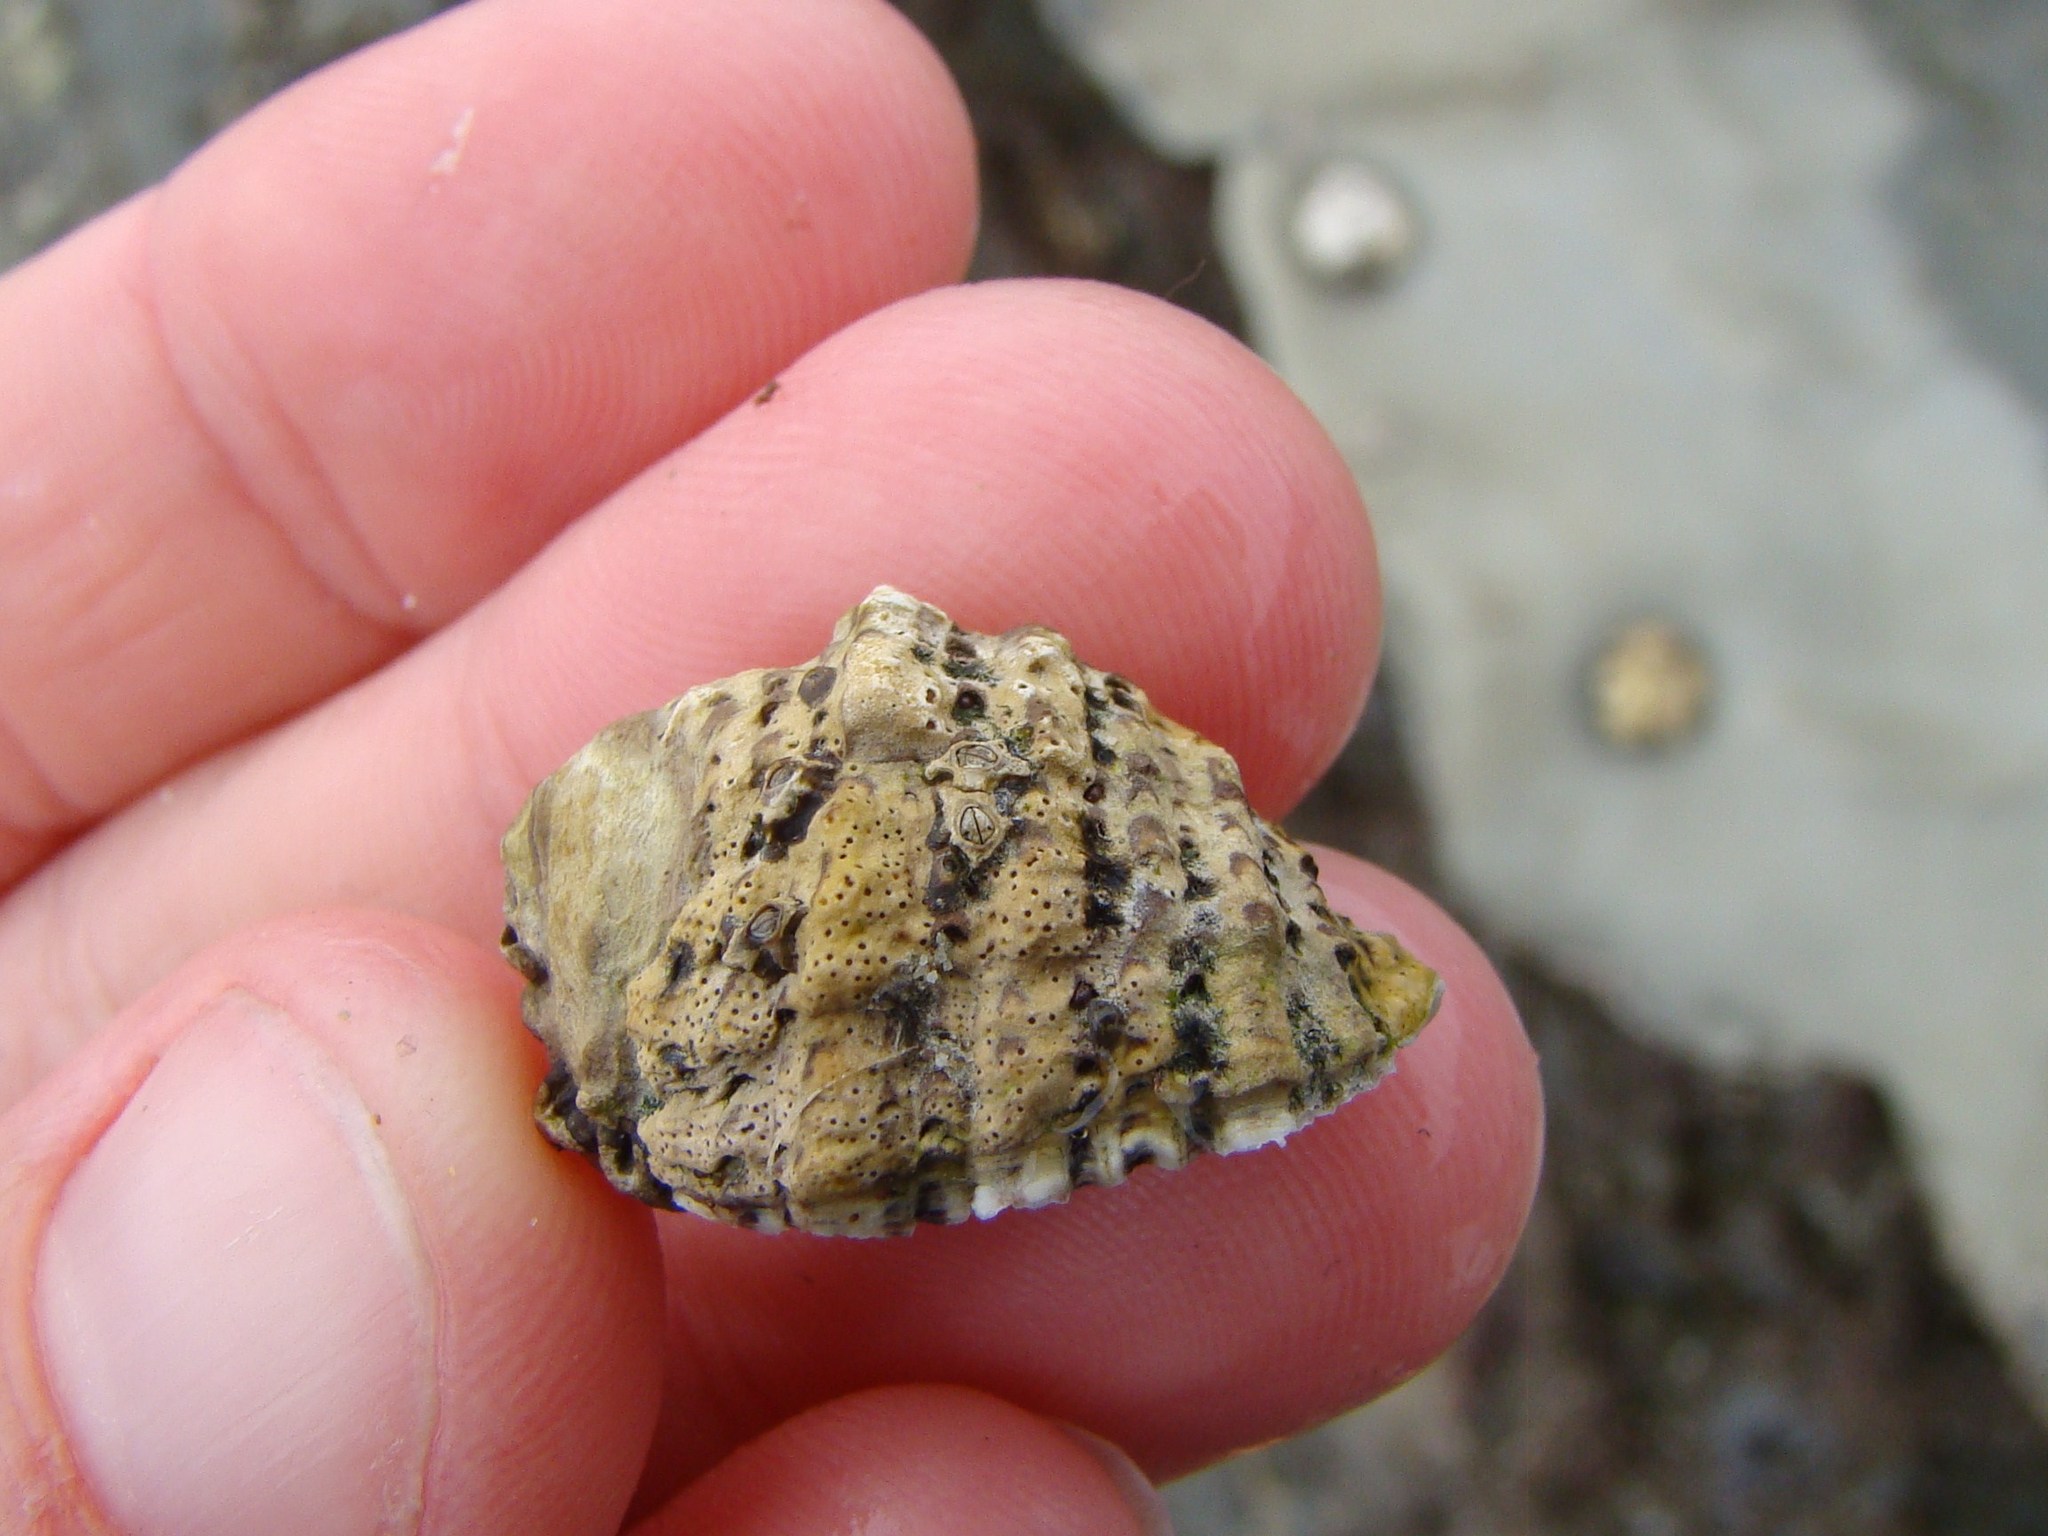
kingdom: Animalia
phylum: Mollusca
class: Gastropoda
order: Neogastropoda
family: Muricidae
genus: Haustrum
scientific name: Haustrum scobina
